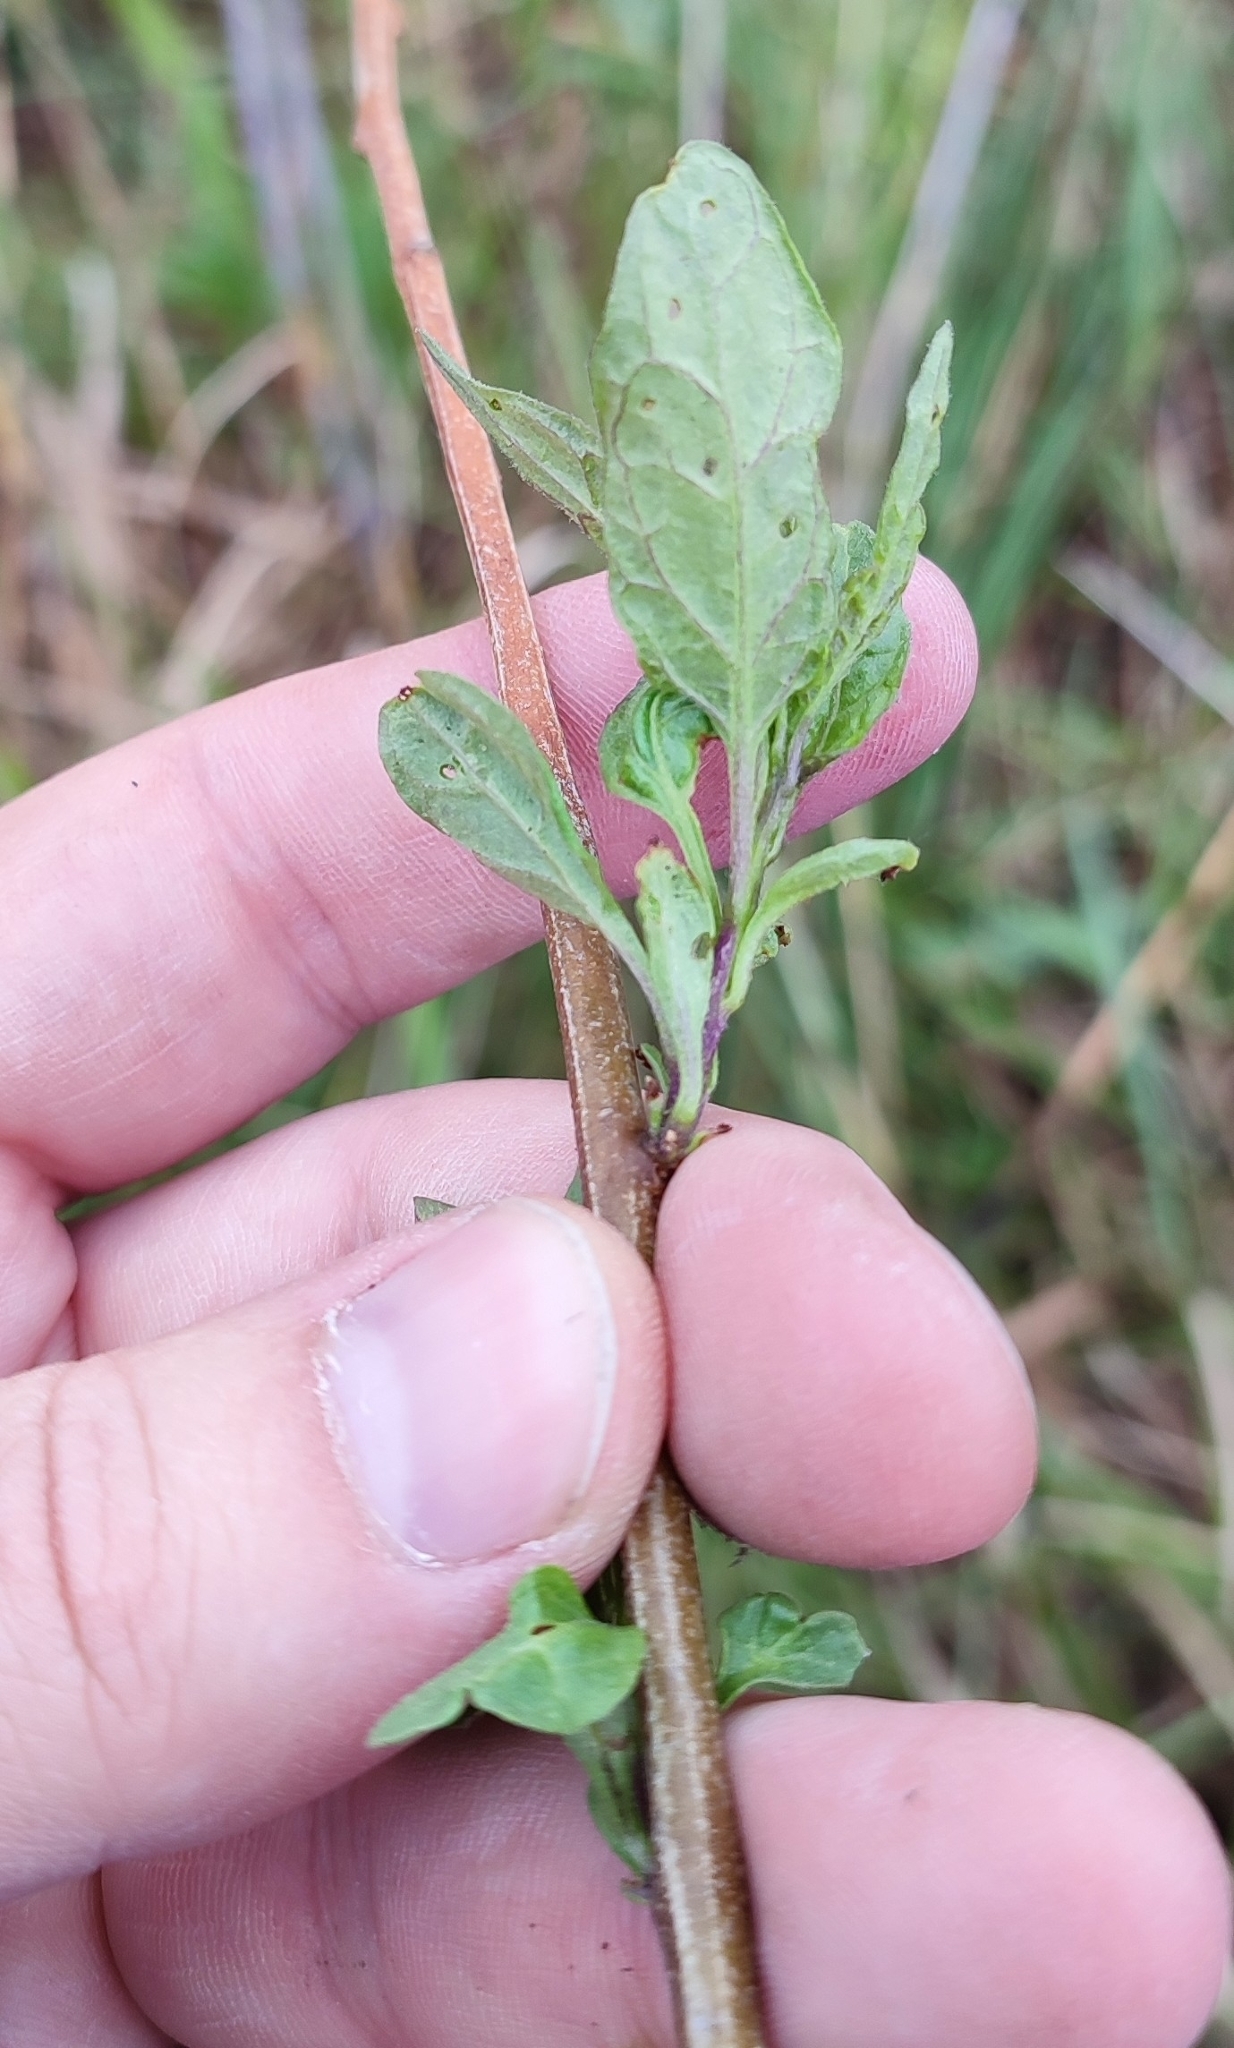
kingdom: Plantae
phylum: Tracheophyta
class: Magnoliopsida
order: Solanales
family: Solanaceae
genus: Solanum
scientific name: Solanum dulcamara
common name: Climbing nightshade
